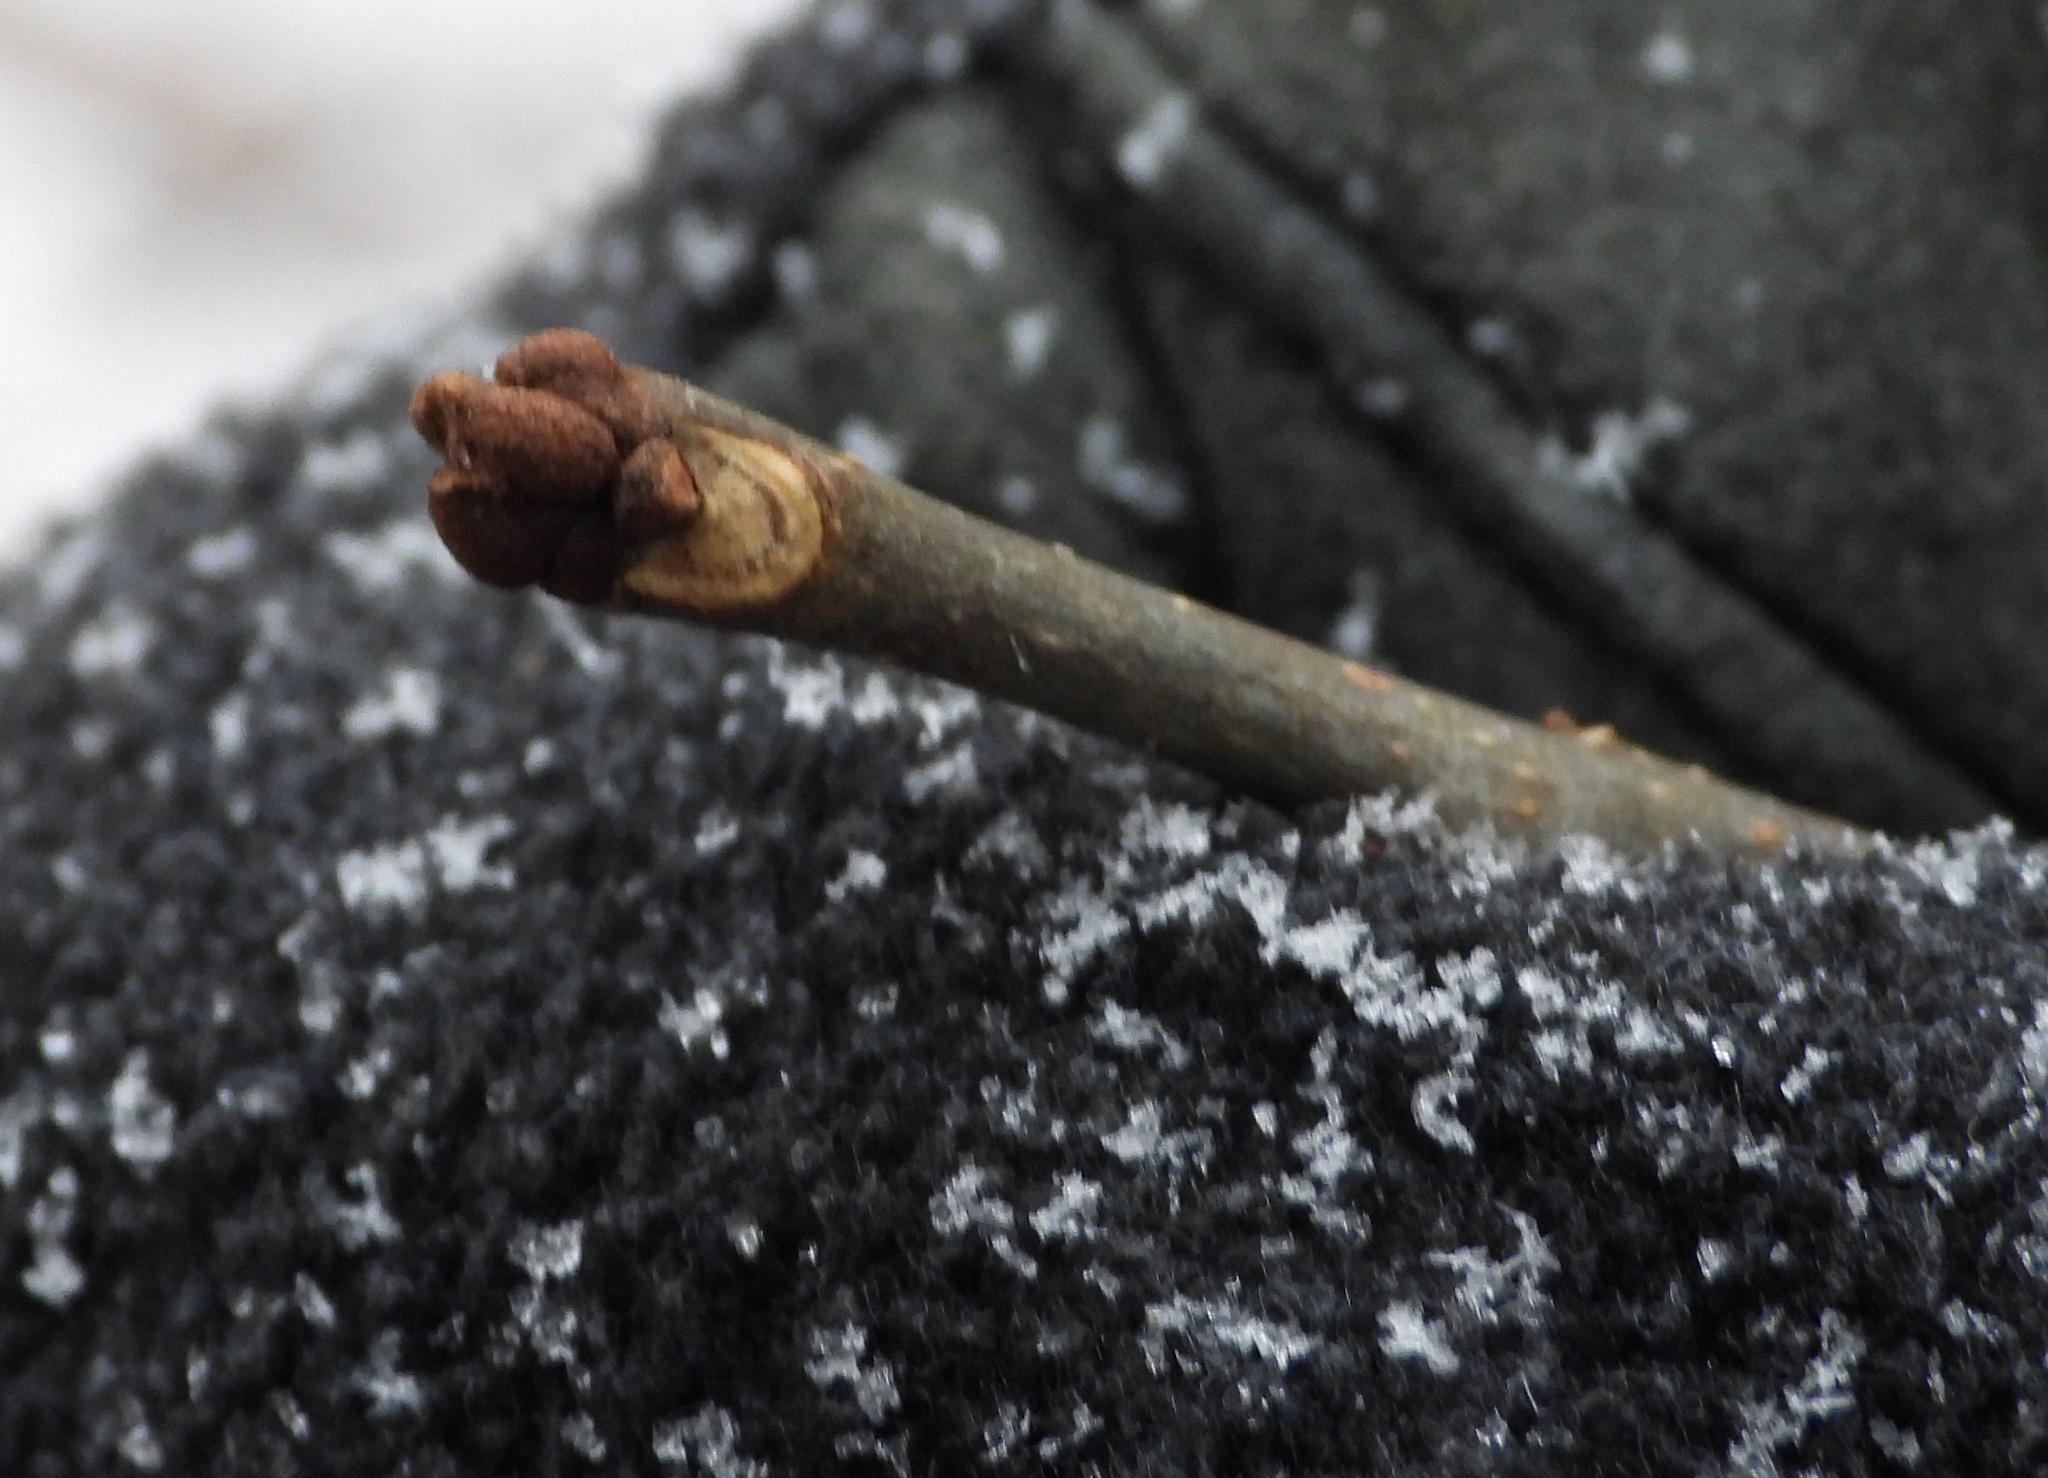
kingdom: Plantae
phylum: Tracheophyta
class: Magnoliopsida
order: Lamiales
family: Oleaceae
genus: Fraxinus
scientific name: Fraxinus pennsylvanica
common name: Green ash
